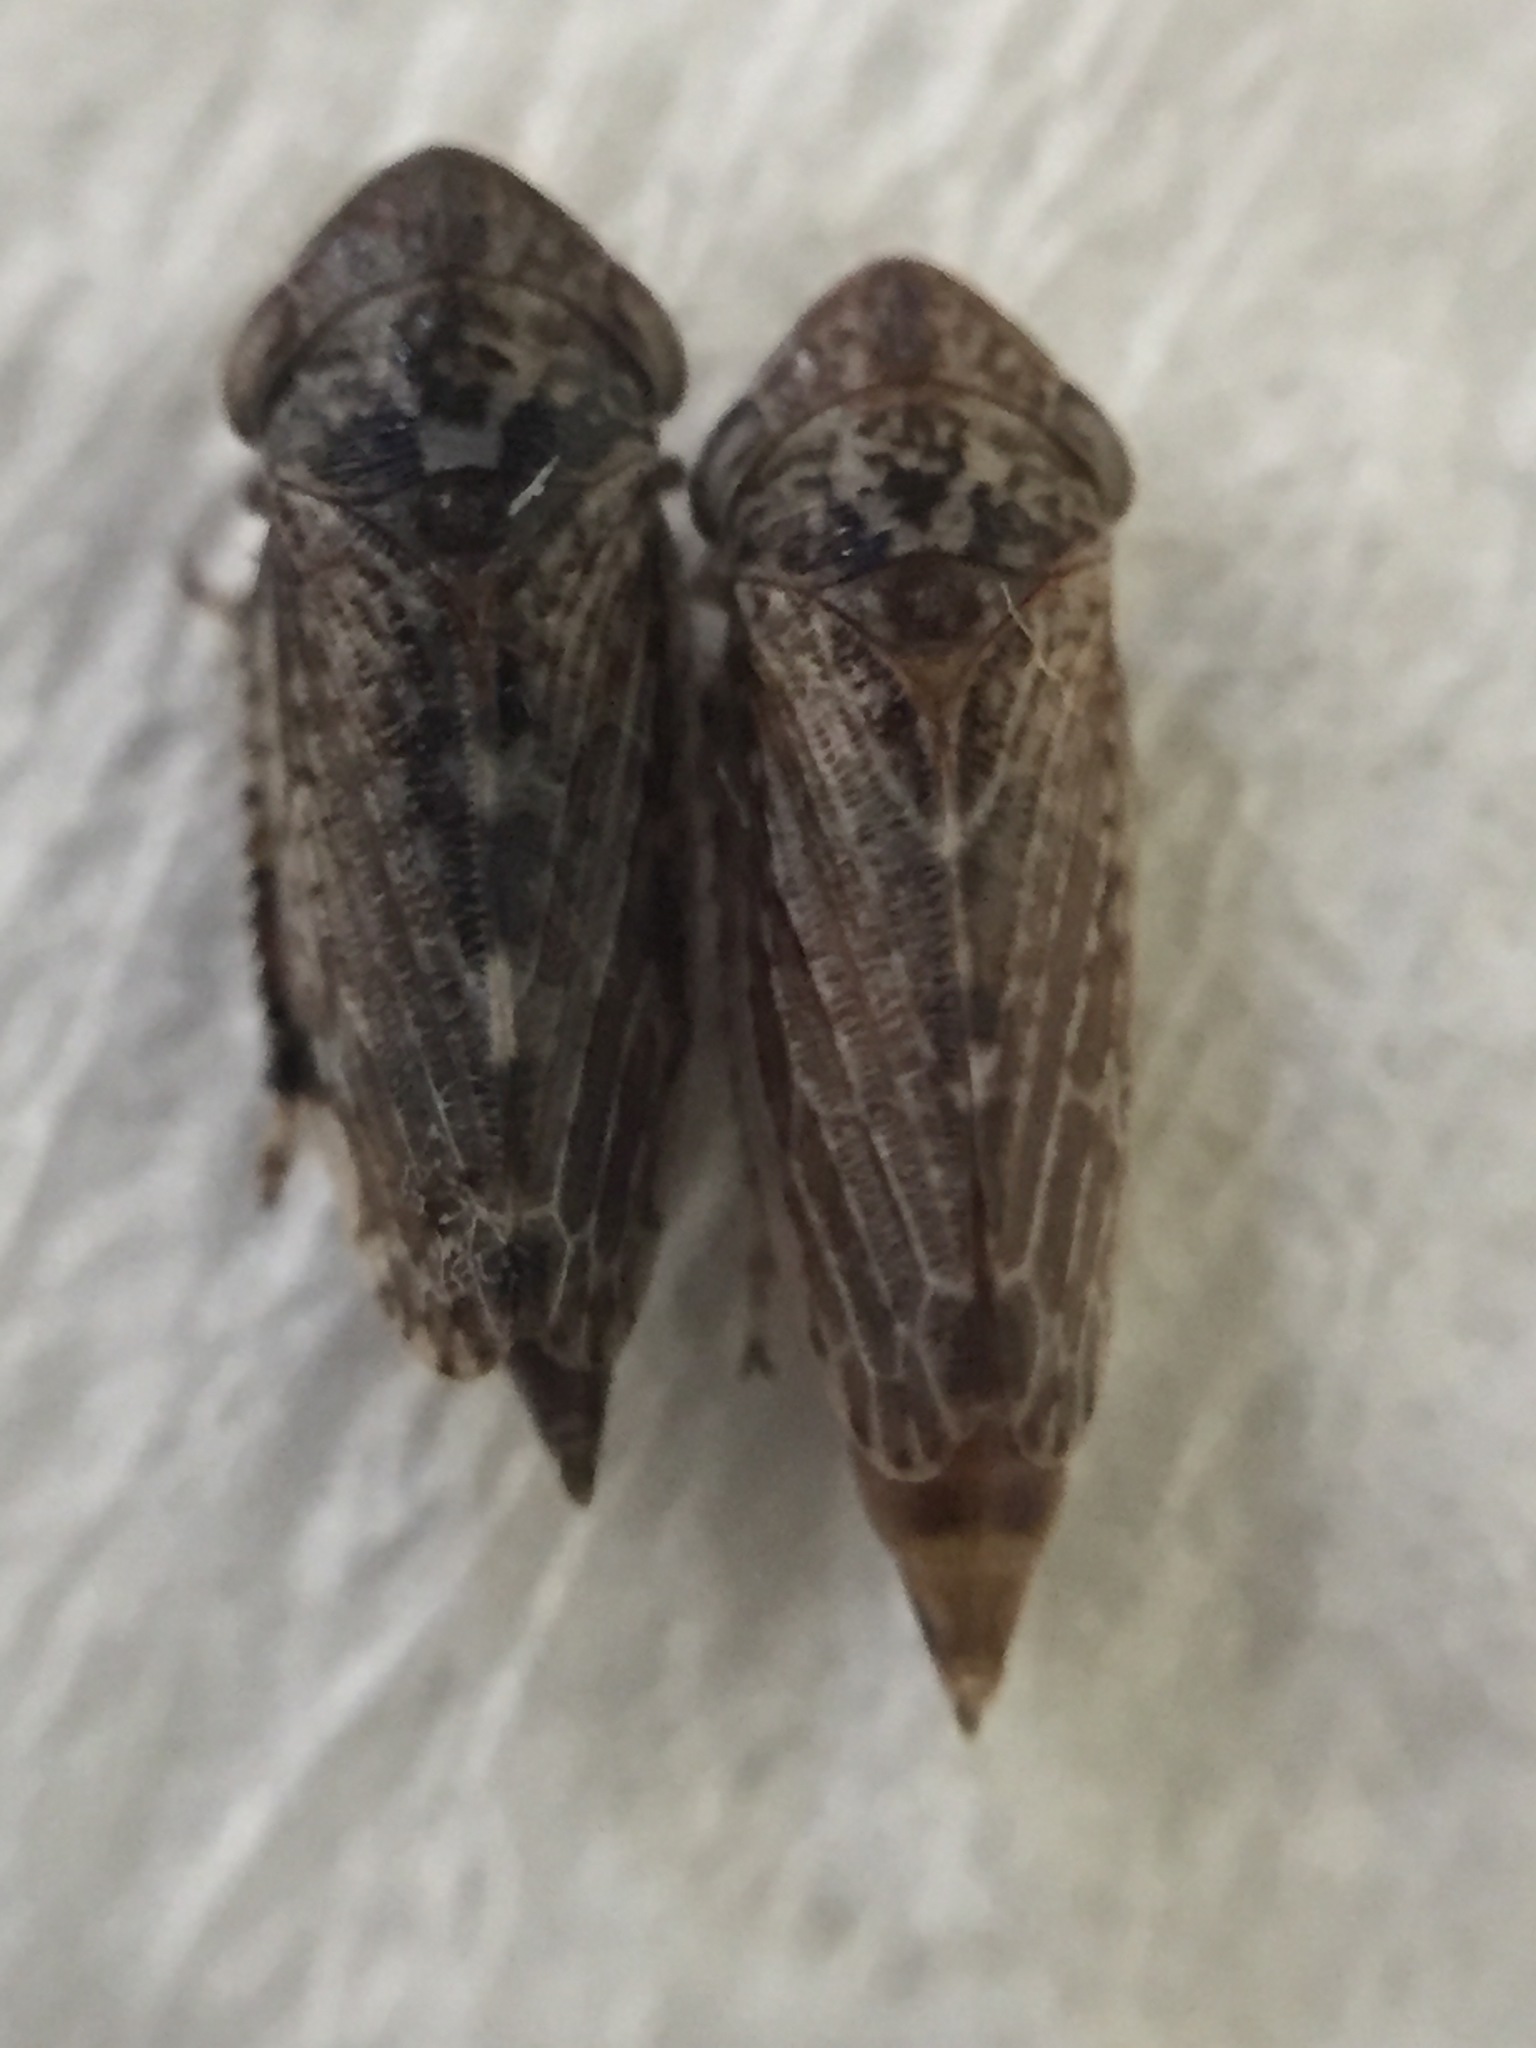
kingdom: Animalia
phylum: Arthropoda
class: Insecta
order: Strepsiptera
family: Halictophagidae
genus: Coriophagus
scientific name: Coriophagus casui
